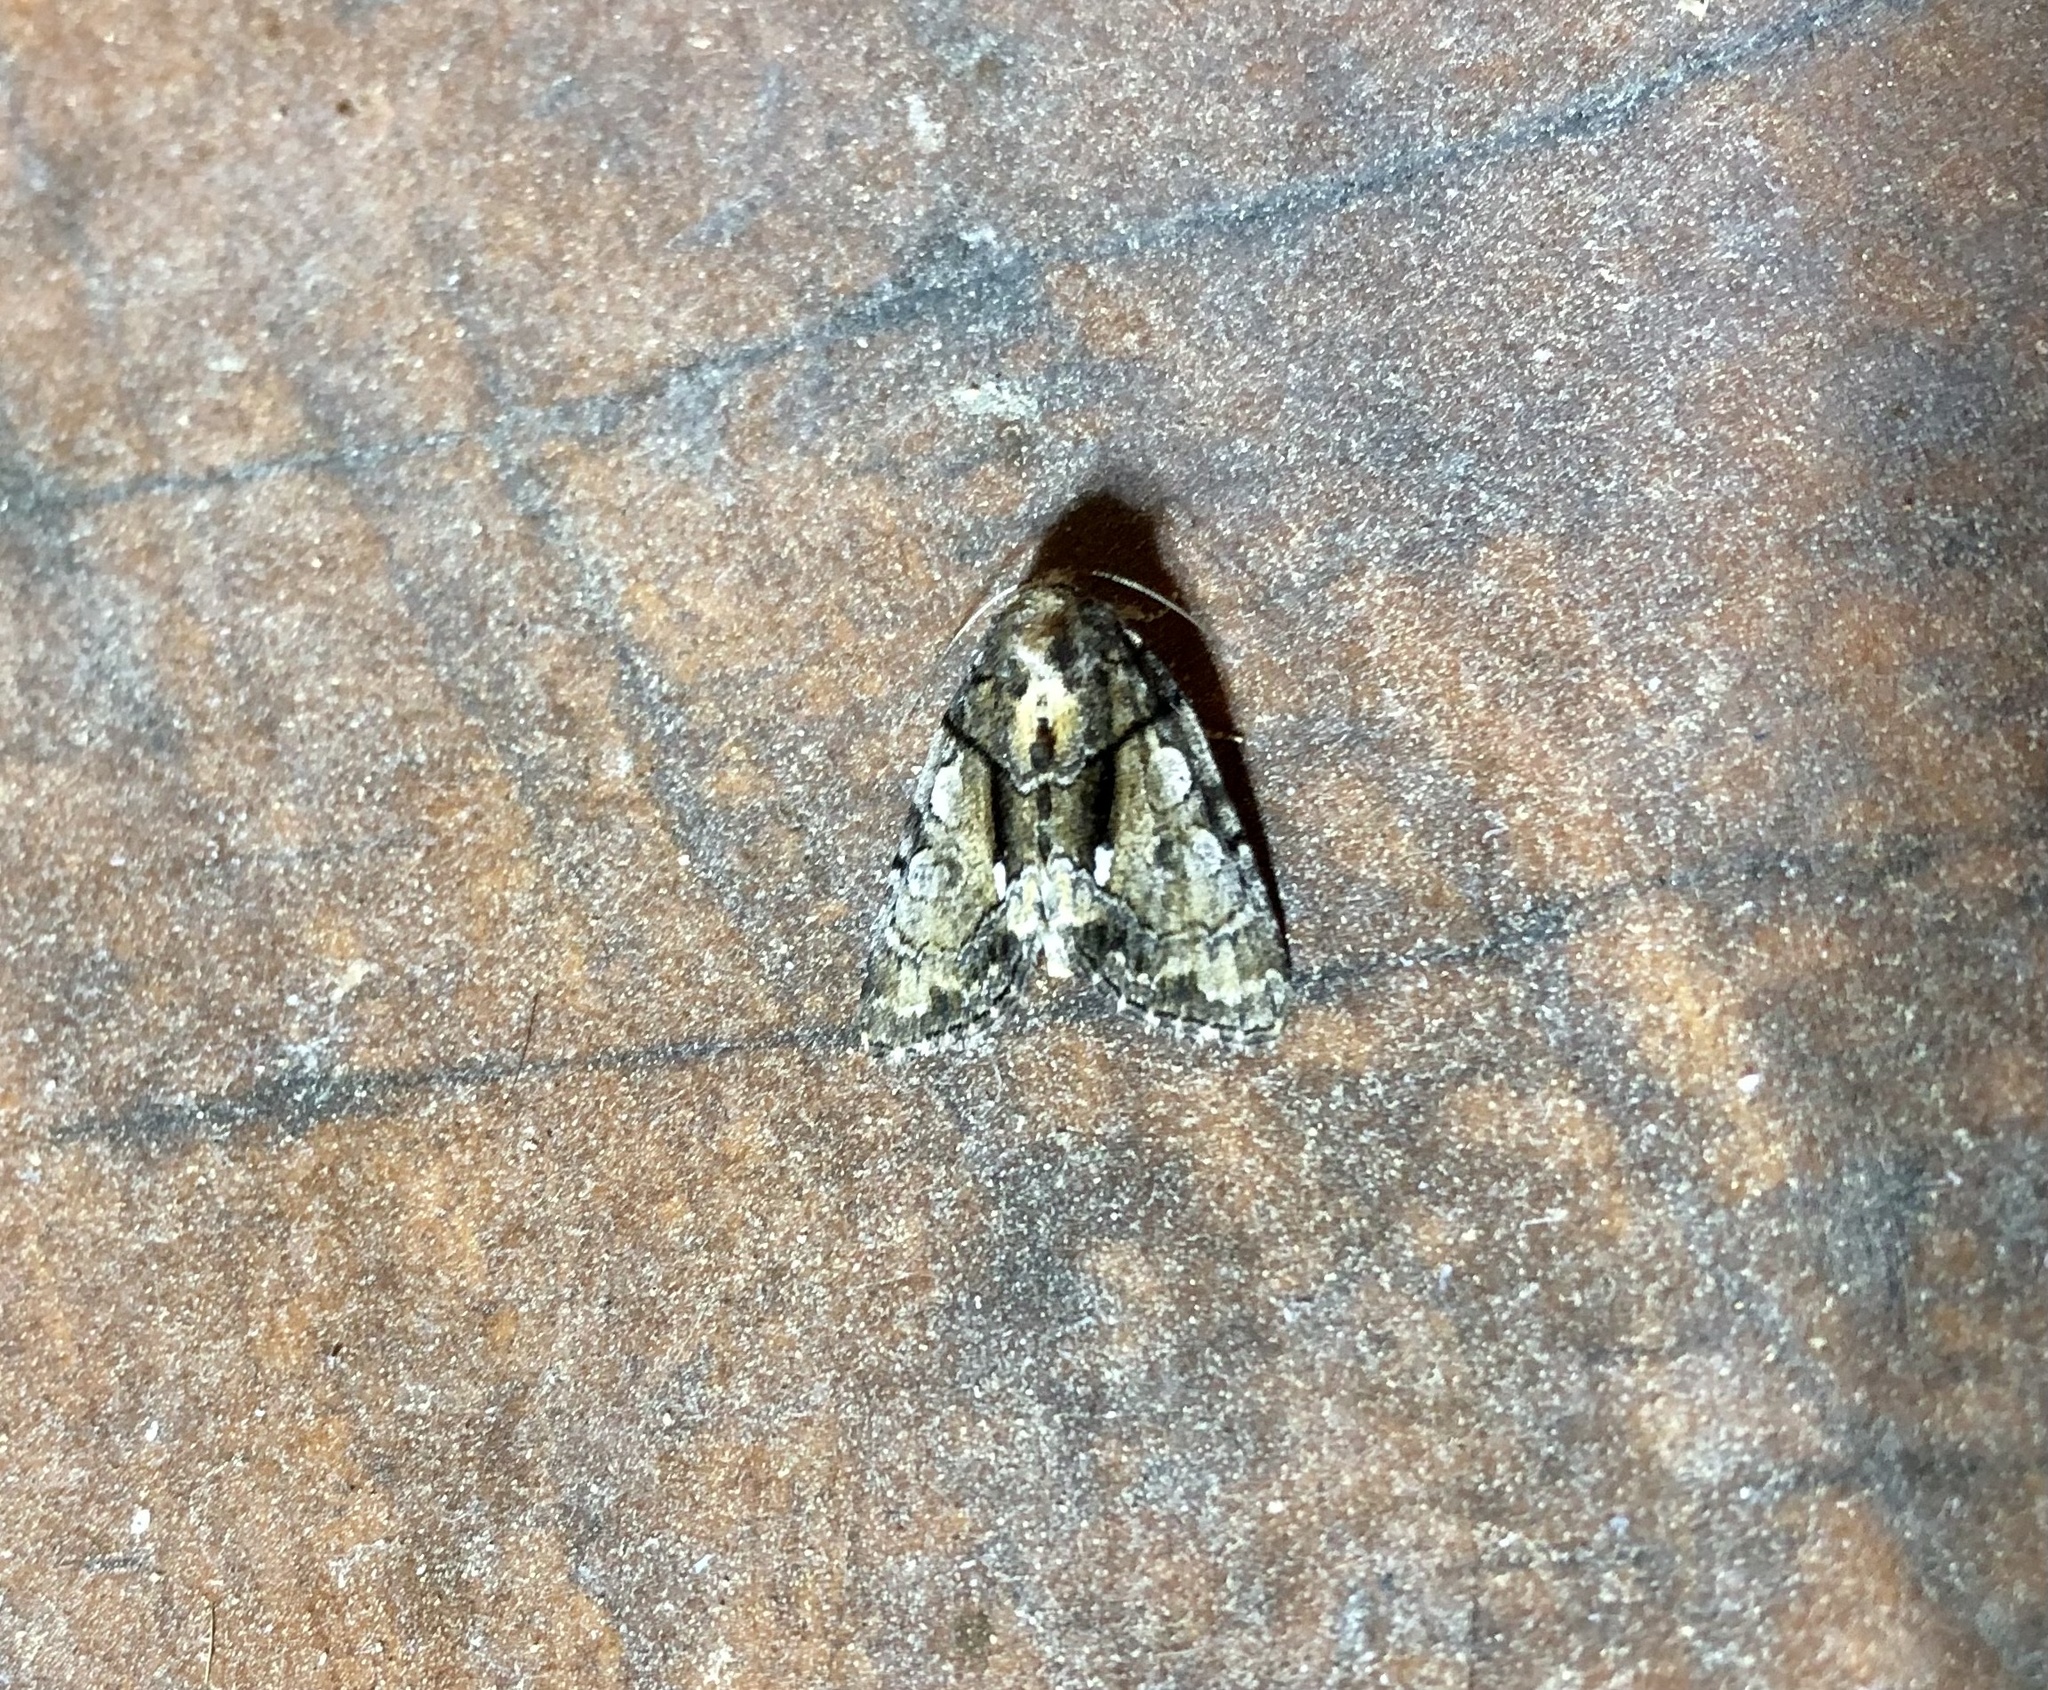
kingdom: Animalia
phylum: Arthropoda
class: Insecta
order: Lepidoptera
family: Noctuidae
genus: Chytonix
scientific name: Chytonix palliatricula
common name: Cloaked marvel
